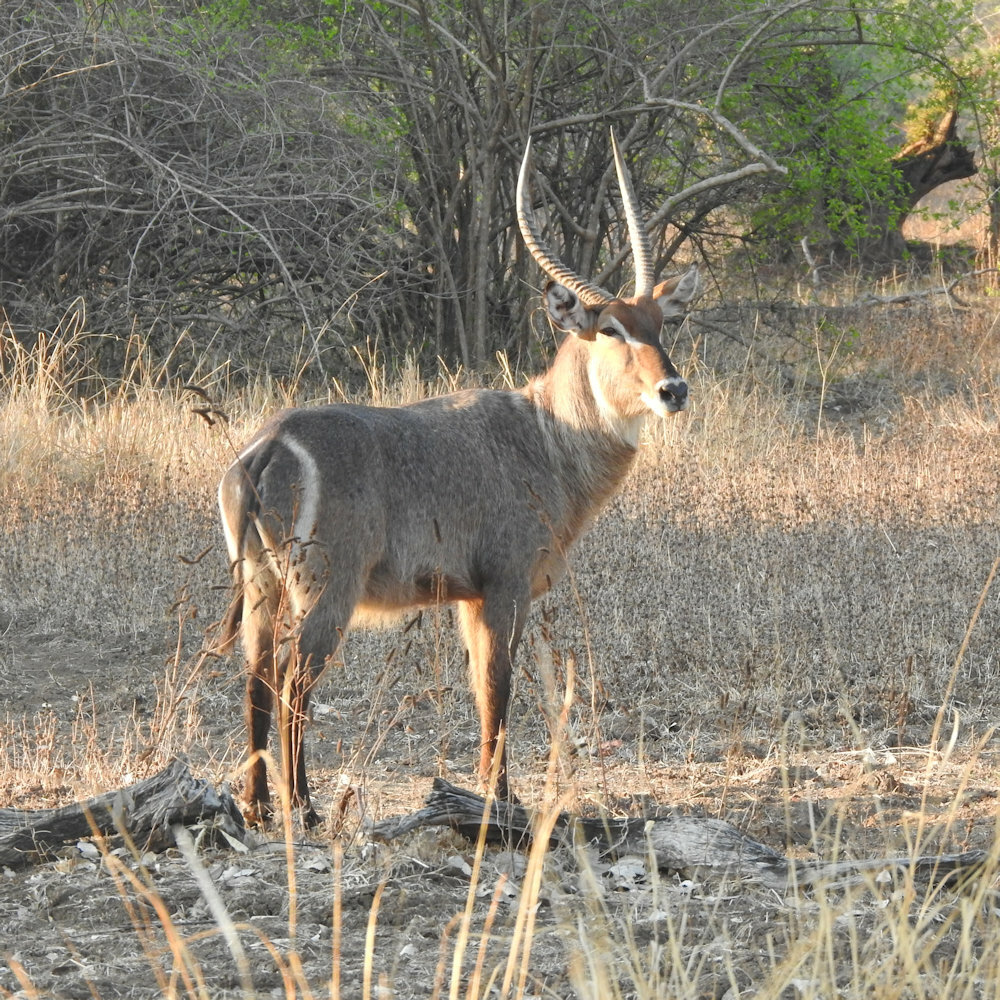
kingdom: Animalia
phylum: Chordata
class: Mammalia
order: Artiodactyla
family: Bovidae
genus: Kobus
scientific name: Kobus ellipsiprymnus
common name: Waterbuck
